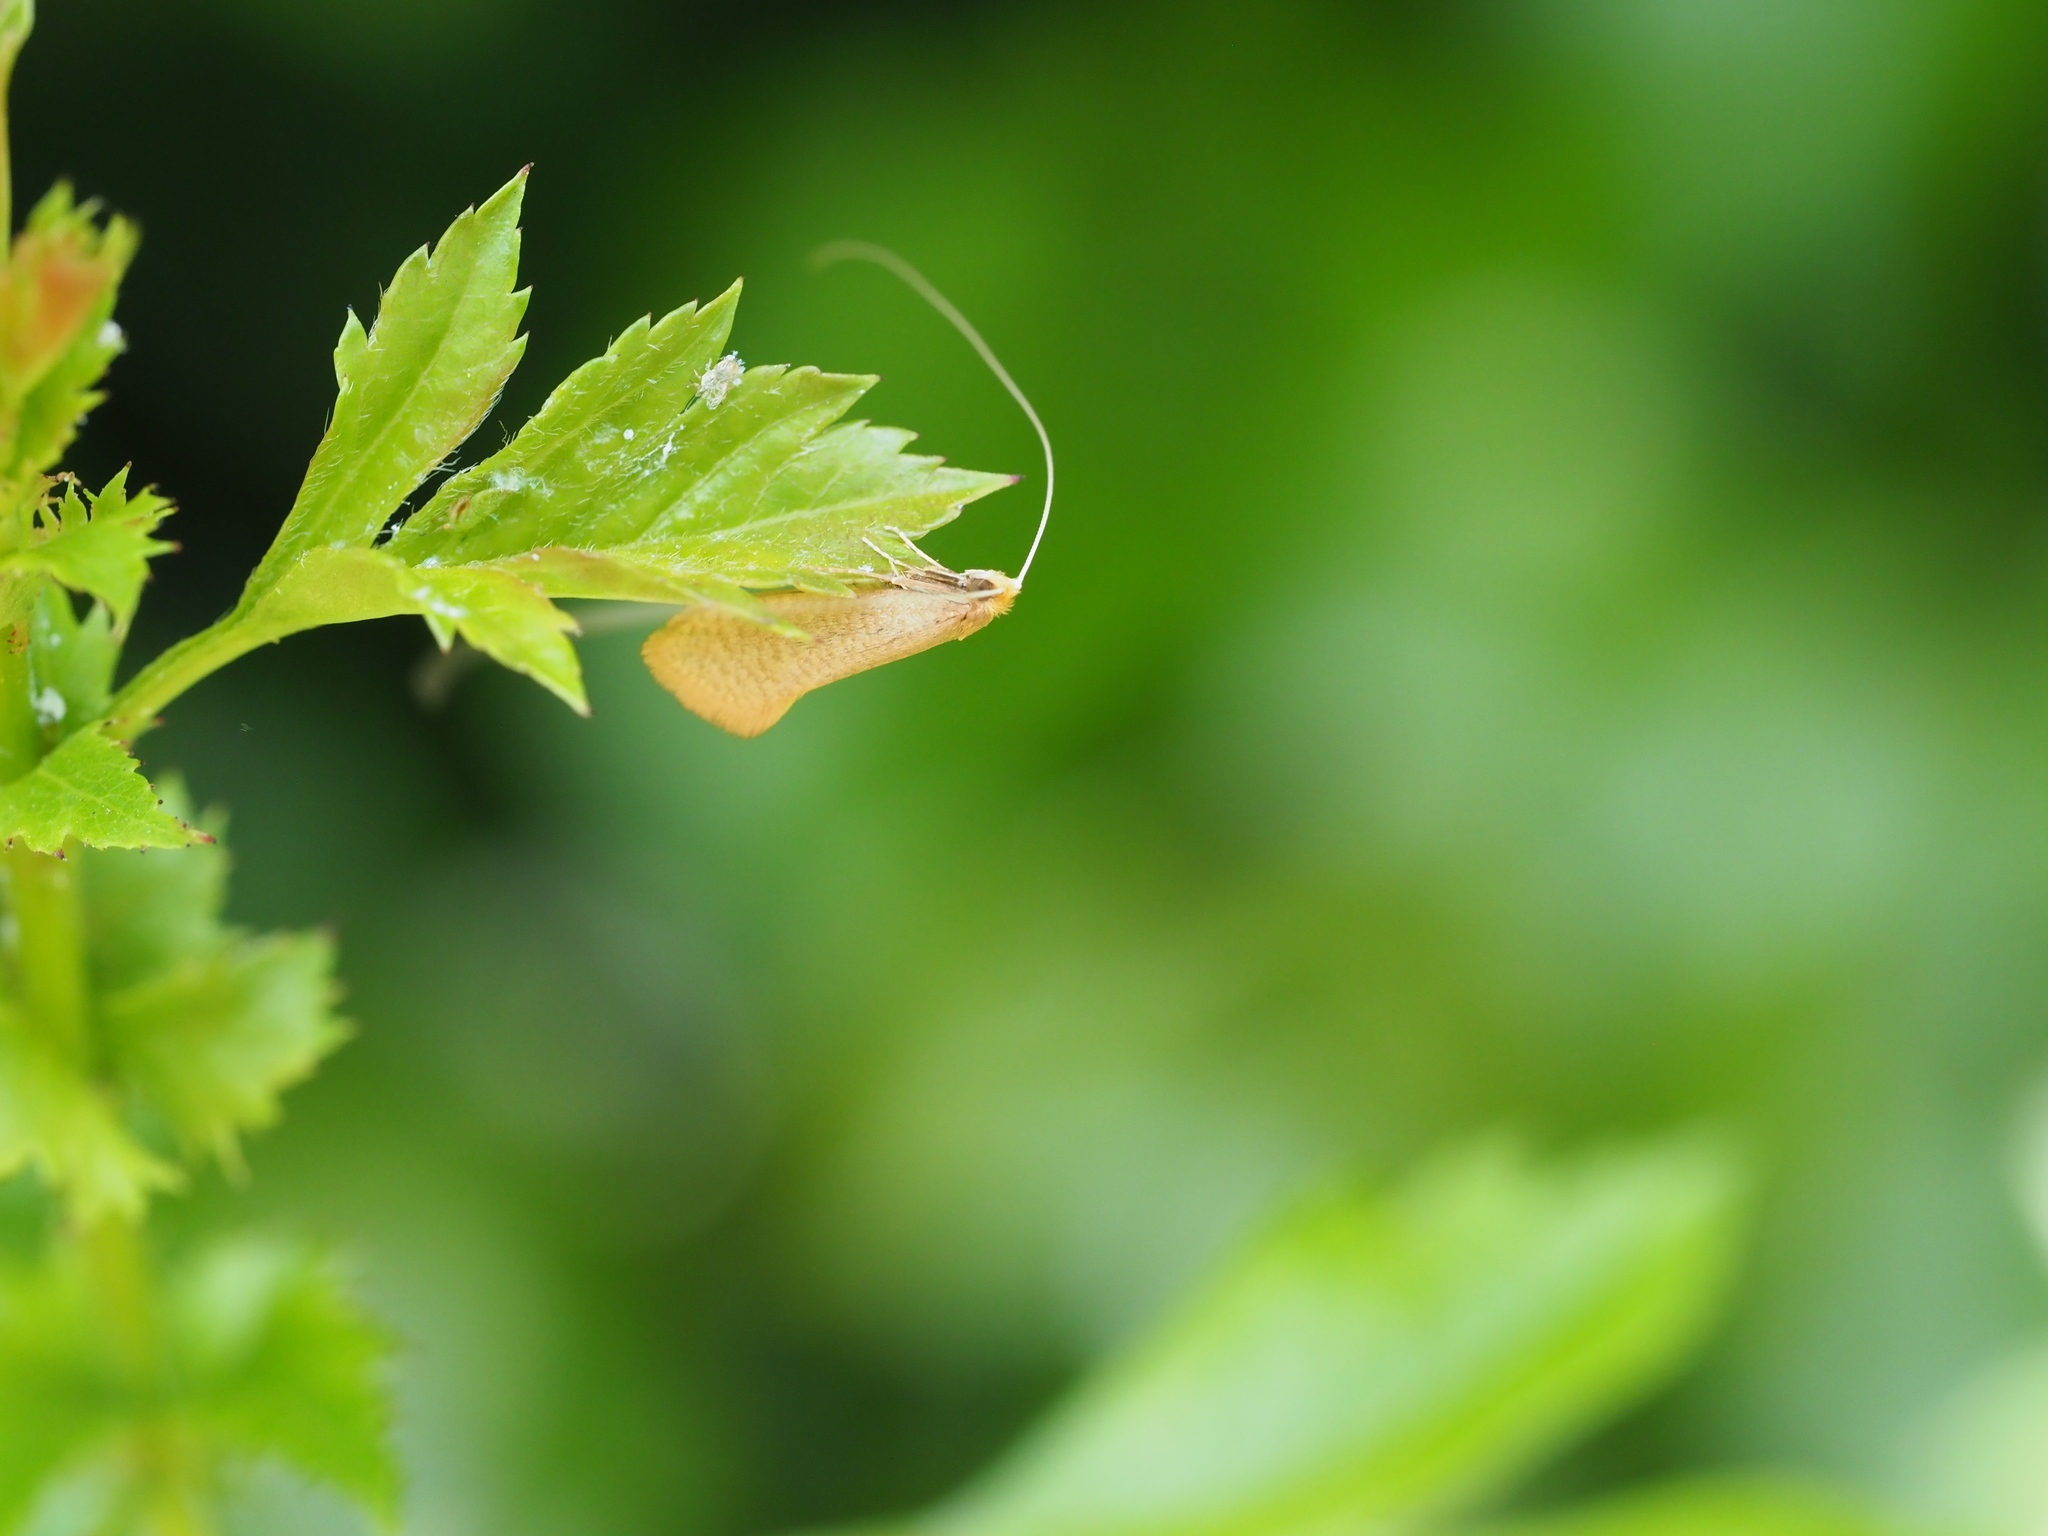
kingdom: Animalia
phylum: Arthropoda
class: Insecta
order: Lepidoptera
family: Adelidae
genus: Nematopogon
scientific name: Nematopogon swammerdamella
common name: Large long-horn
